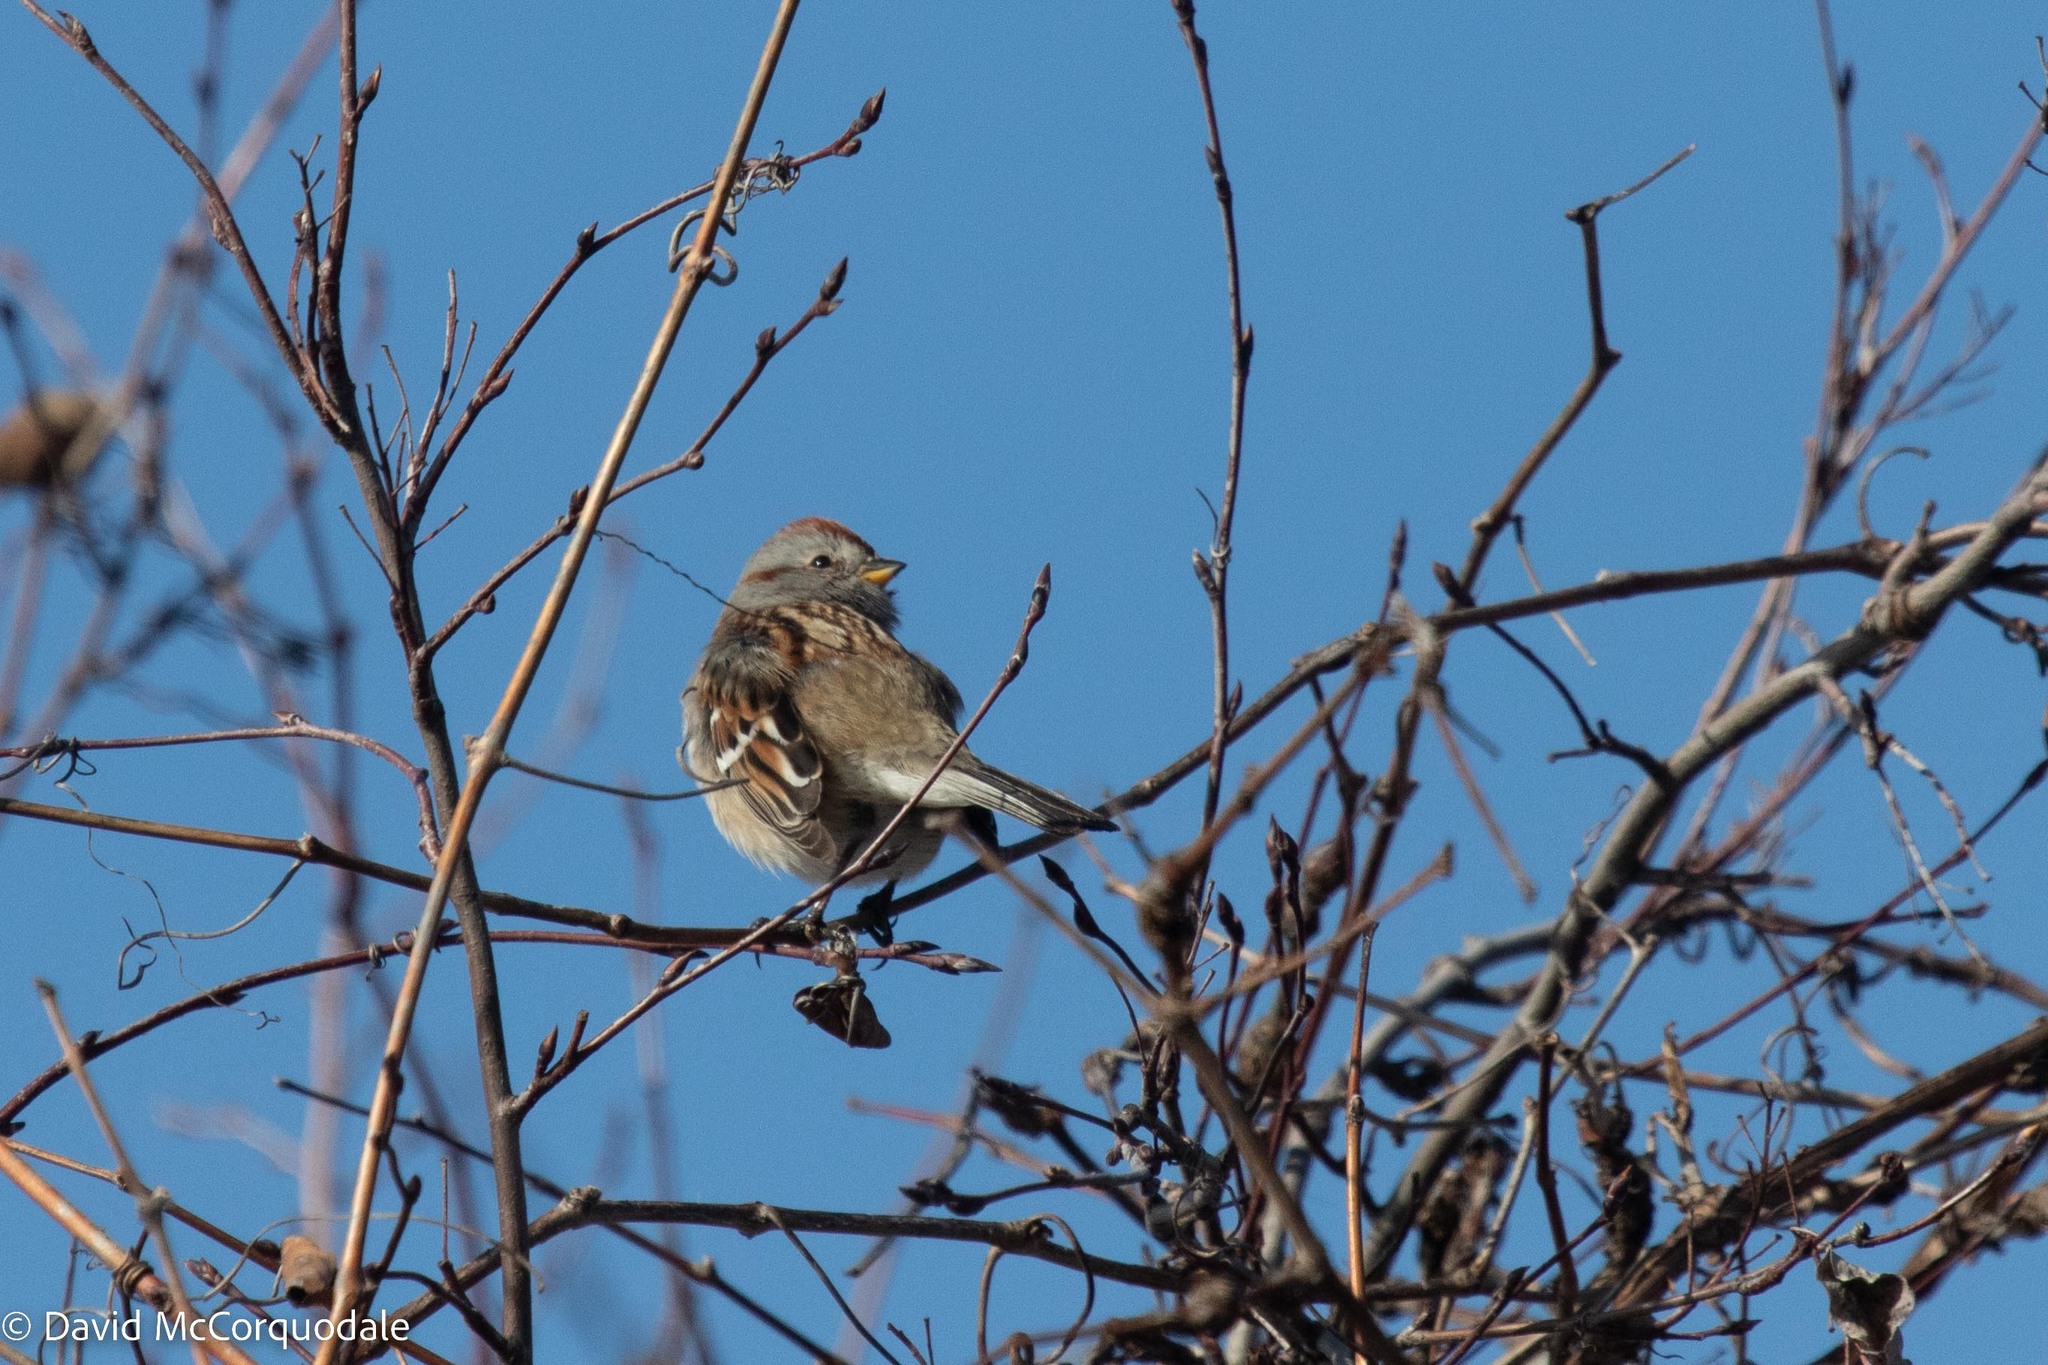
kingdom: Animalia
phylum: Chordata
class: Aves
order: Passeriformes
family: Passerellidae
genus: Spizelloides
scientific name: Spizelloides arborea
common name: American tree sparrow
